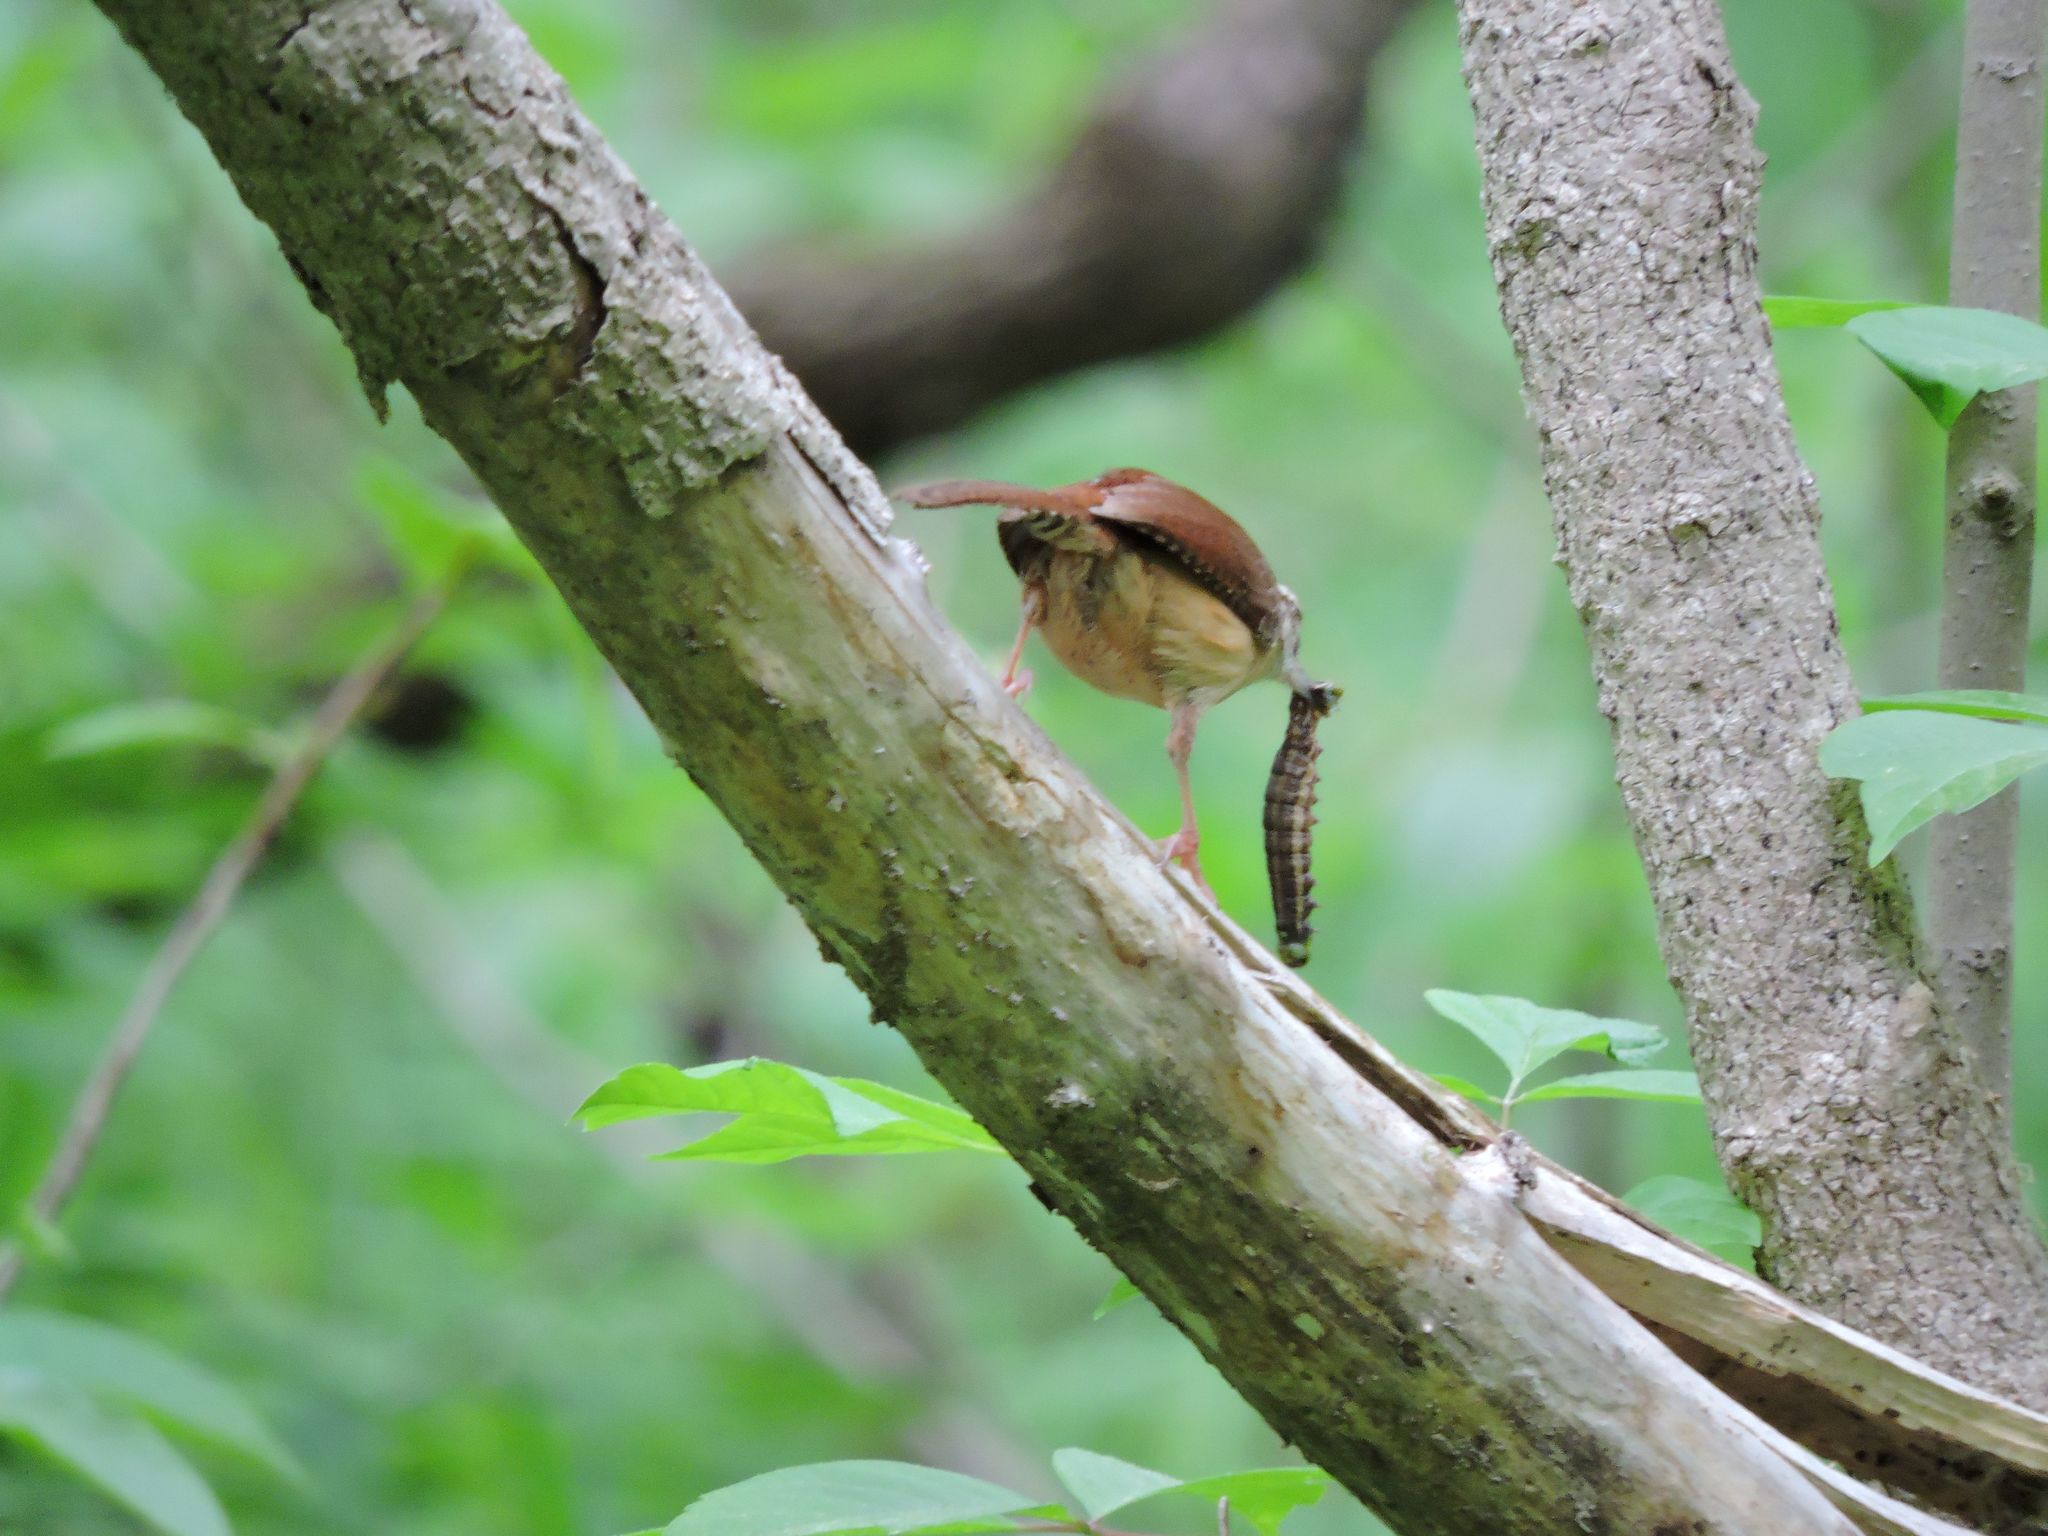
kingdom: Animalia
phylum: Chordata
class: Aves
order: Passeriformes
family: Troglodytidae
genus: Thryothorus
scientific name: Thryothorus ludovicianus
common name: Carolina wren
